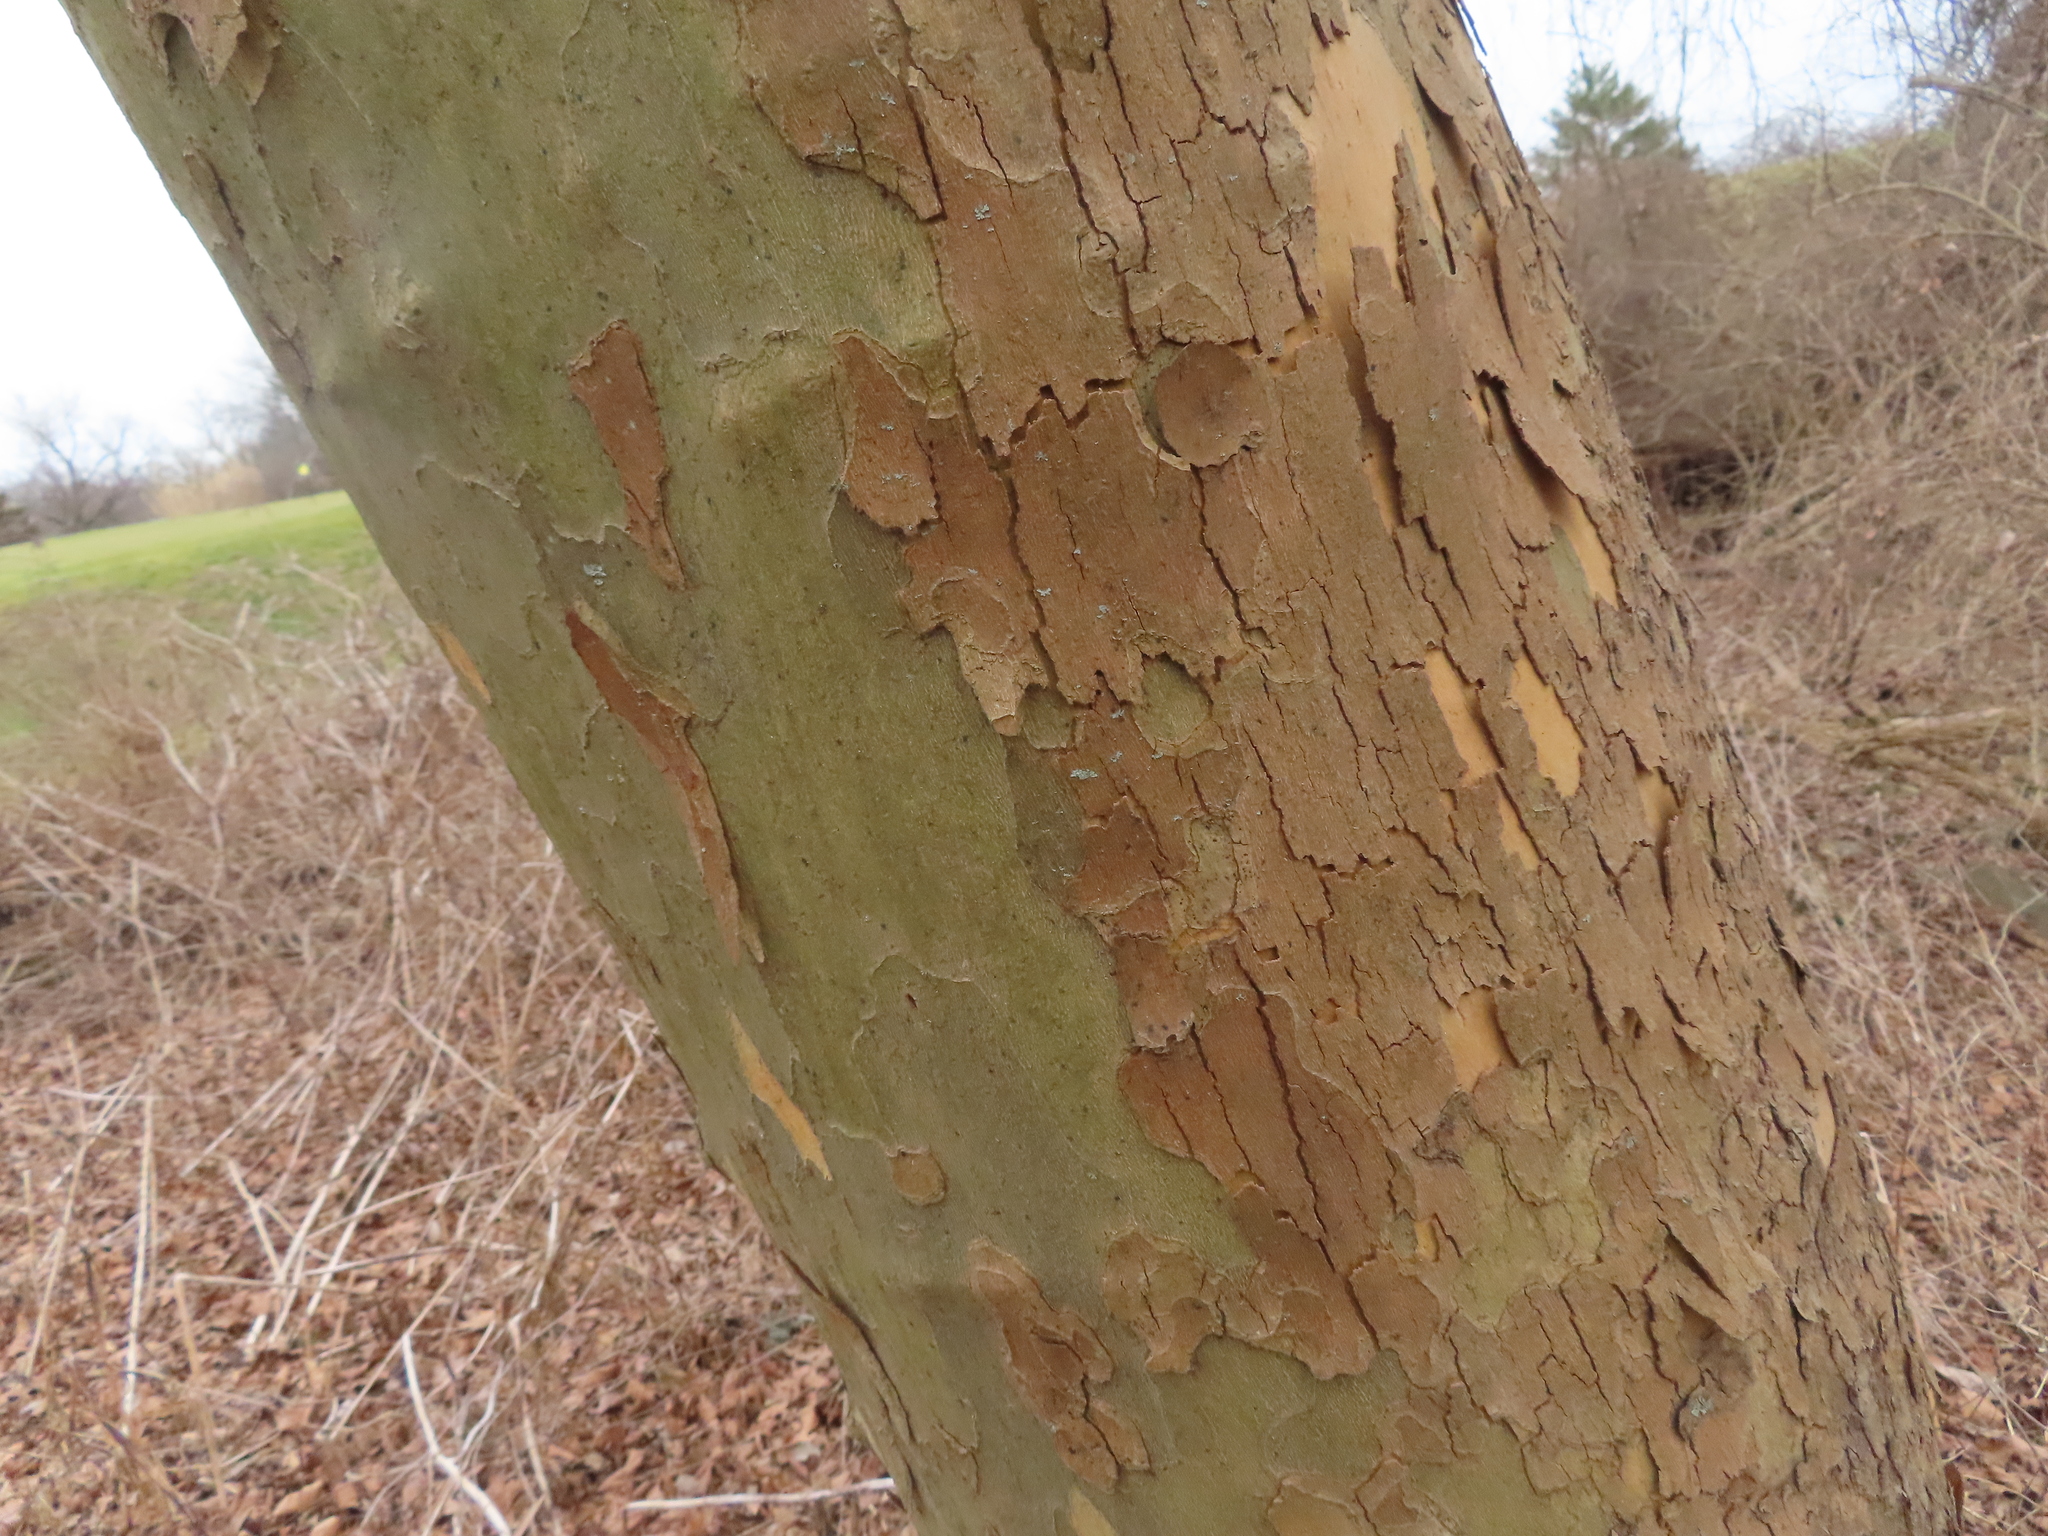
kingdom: Plantae
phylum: Tracheophyta
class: Magnoliopsida
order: Proteales
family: Platanaceae
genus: Platanus
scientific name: Platanus occidentalis
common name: American sycamore
